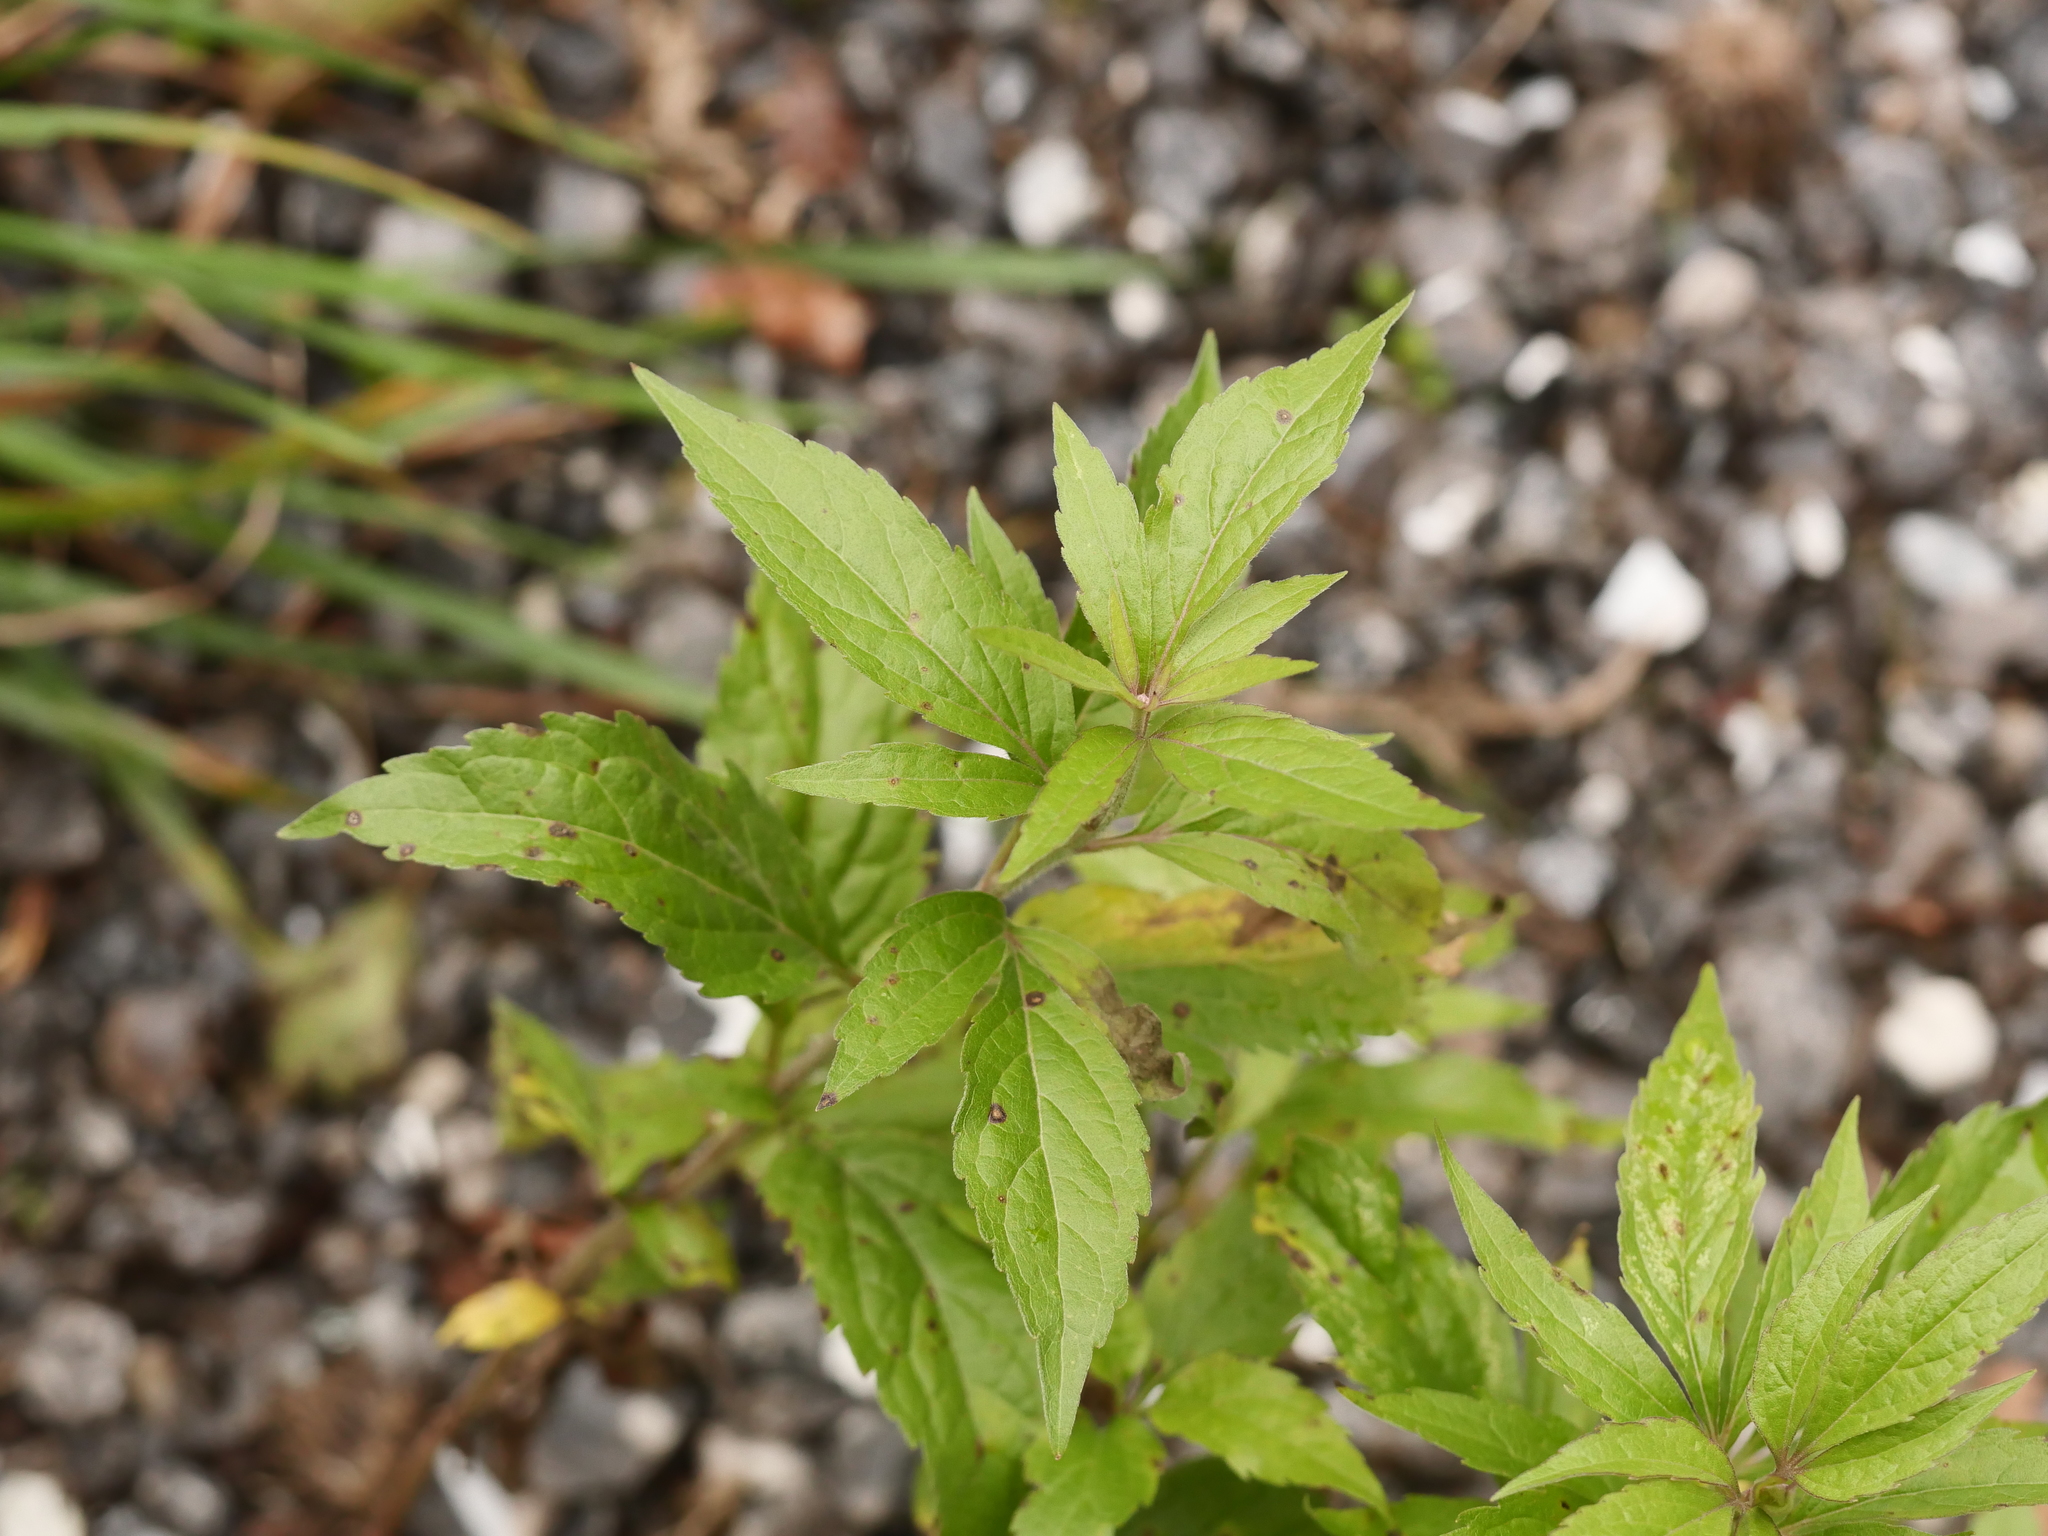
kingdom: Plantae
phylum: Tracheophyta
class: Magnoliopsida
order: Asterales
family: Asteraceae
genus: Eupatorium
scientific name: Eupatorium cannabinum
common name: Hemp-agrimony
